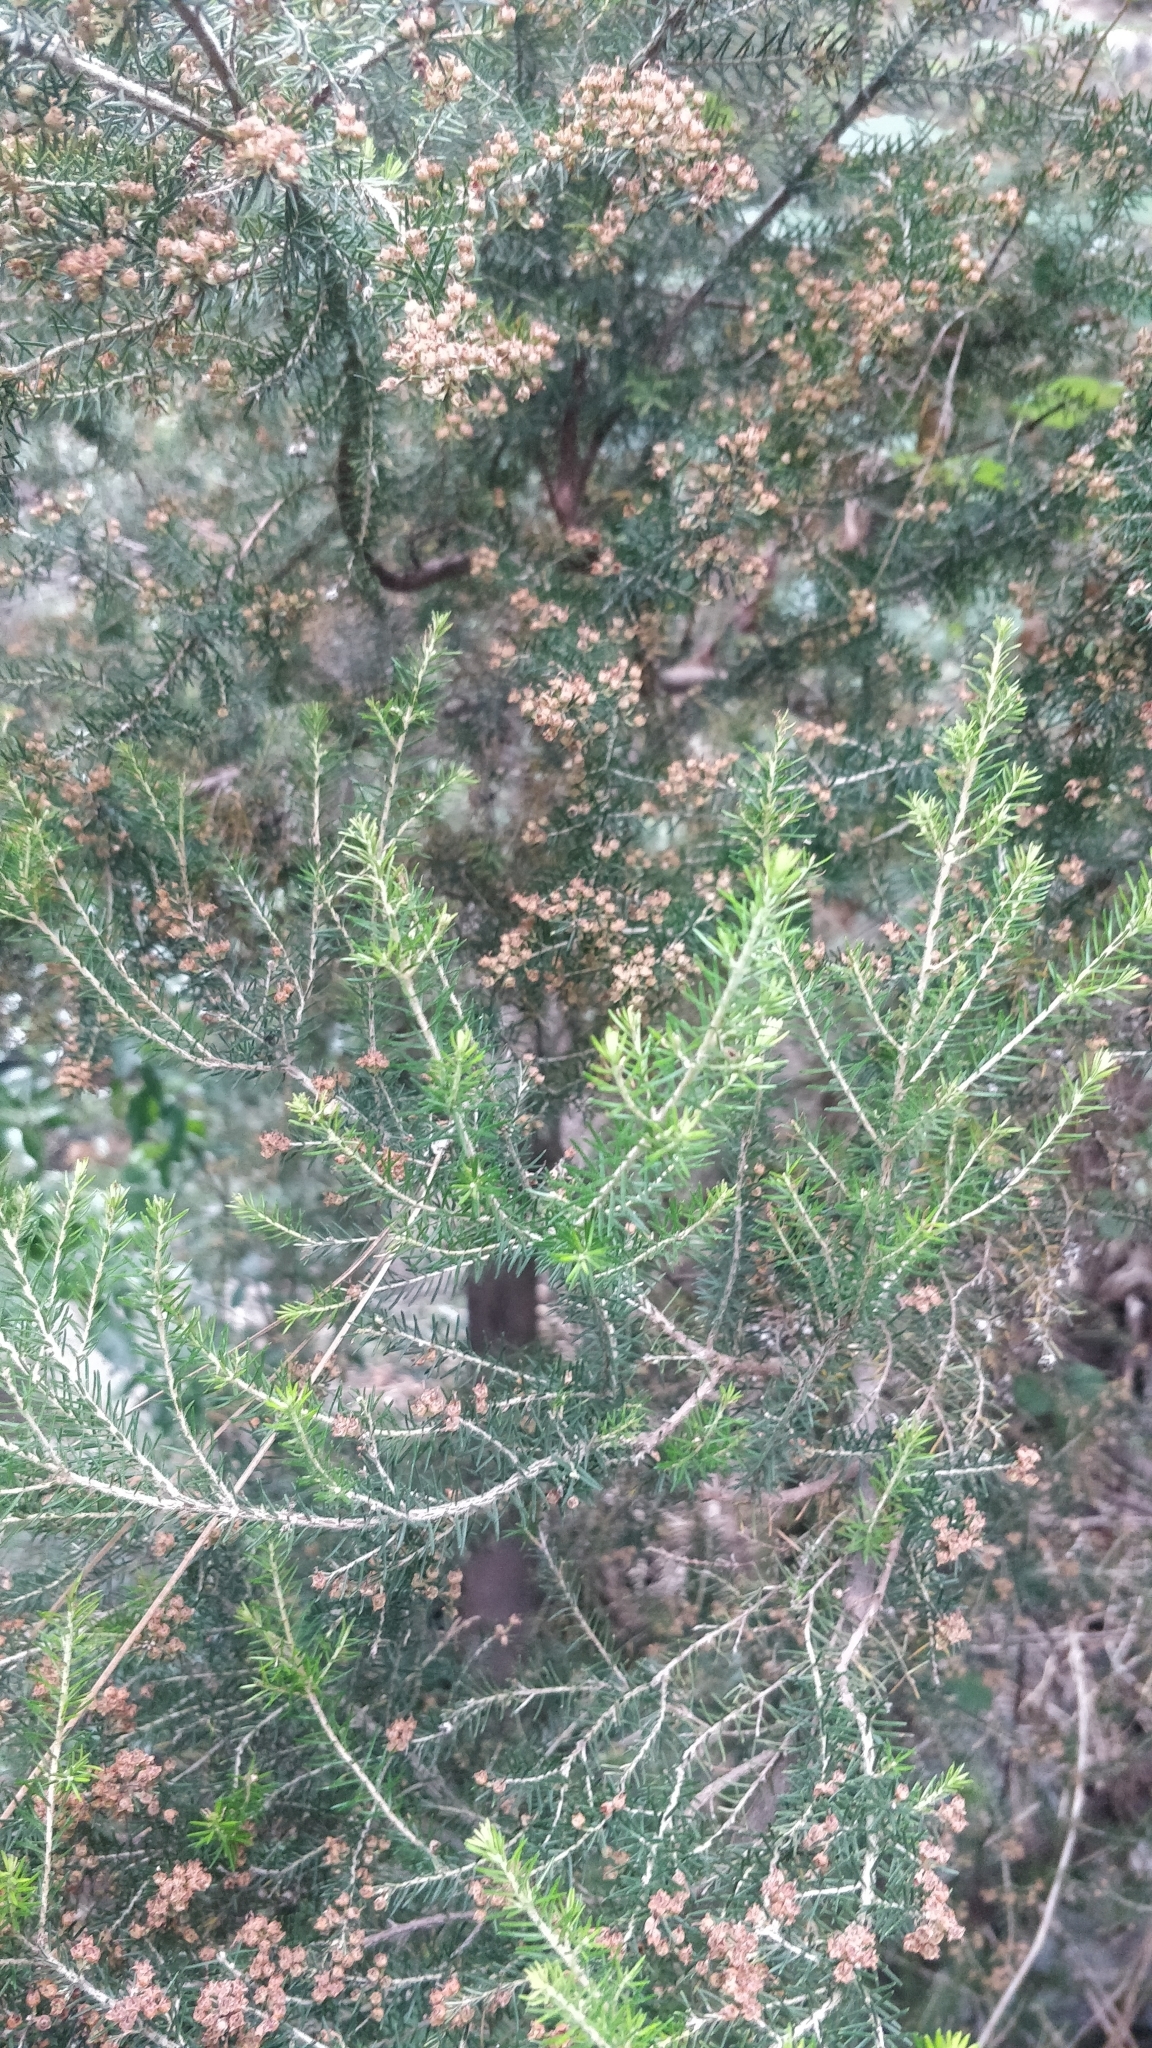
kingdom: Plantae
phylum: Tracheophyta
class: Magnoliopsida
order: Ericales
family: Ericaceae
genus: Erica
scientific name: Erica canariensis
